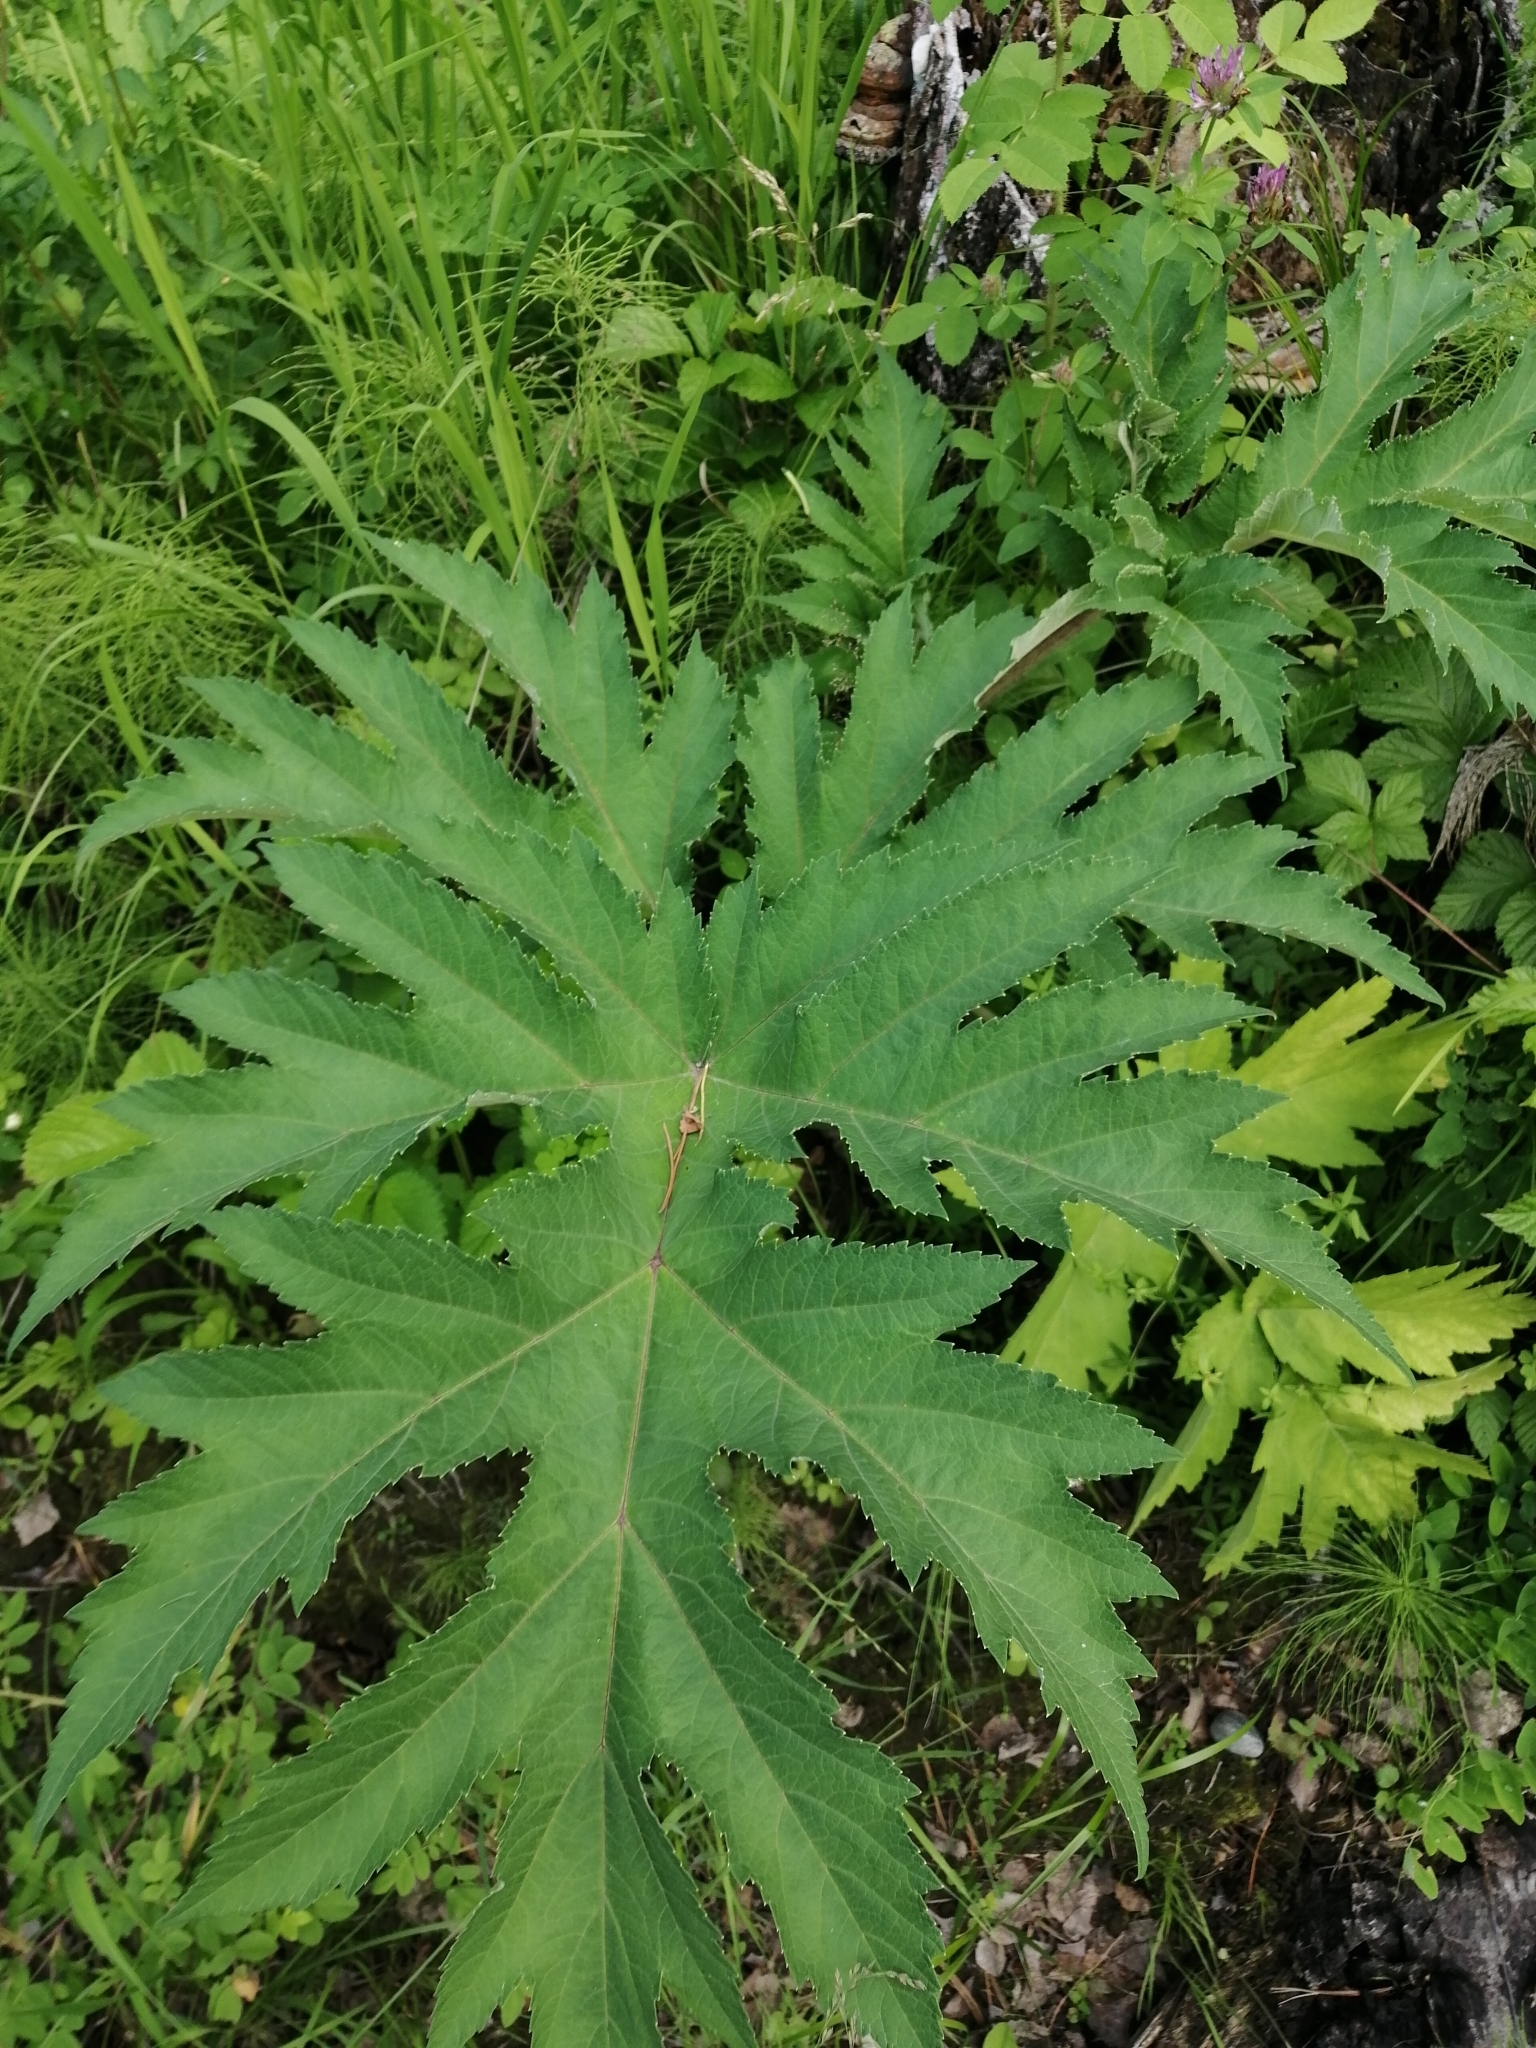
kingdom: Plantae
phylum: Tracheophyta
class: Magnoliopsida
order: Apiales
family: Apiaceae
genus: Heracleum
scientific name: Heracleum dissectum
